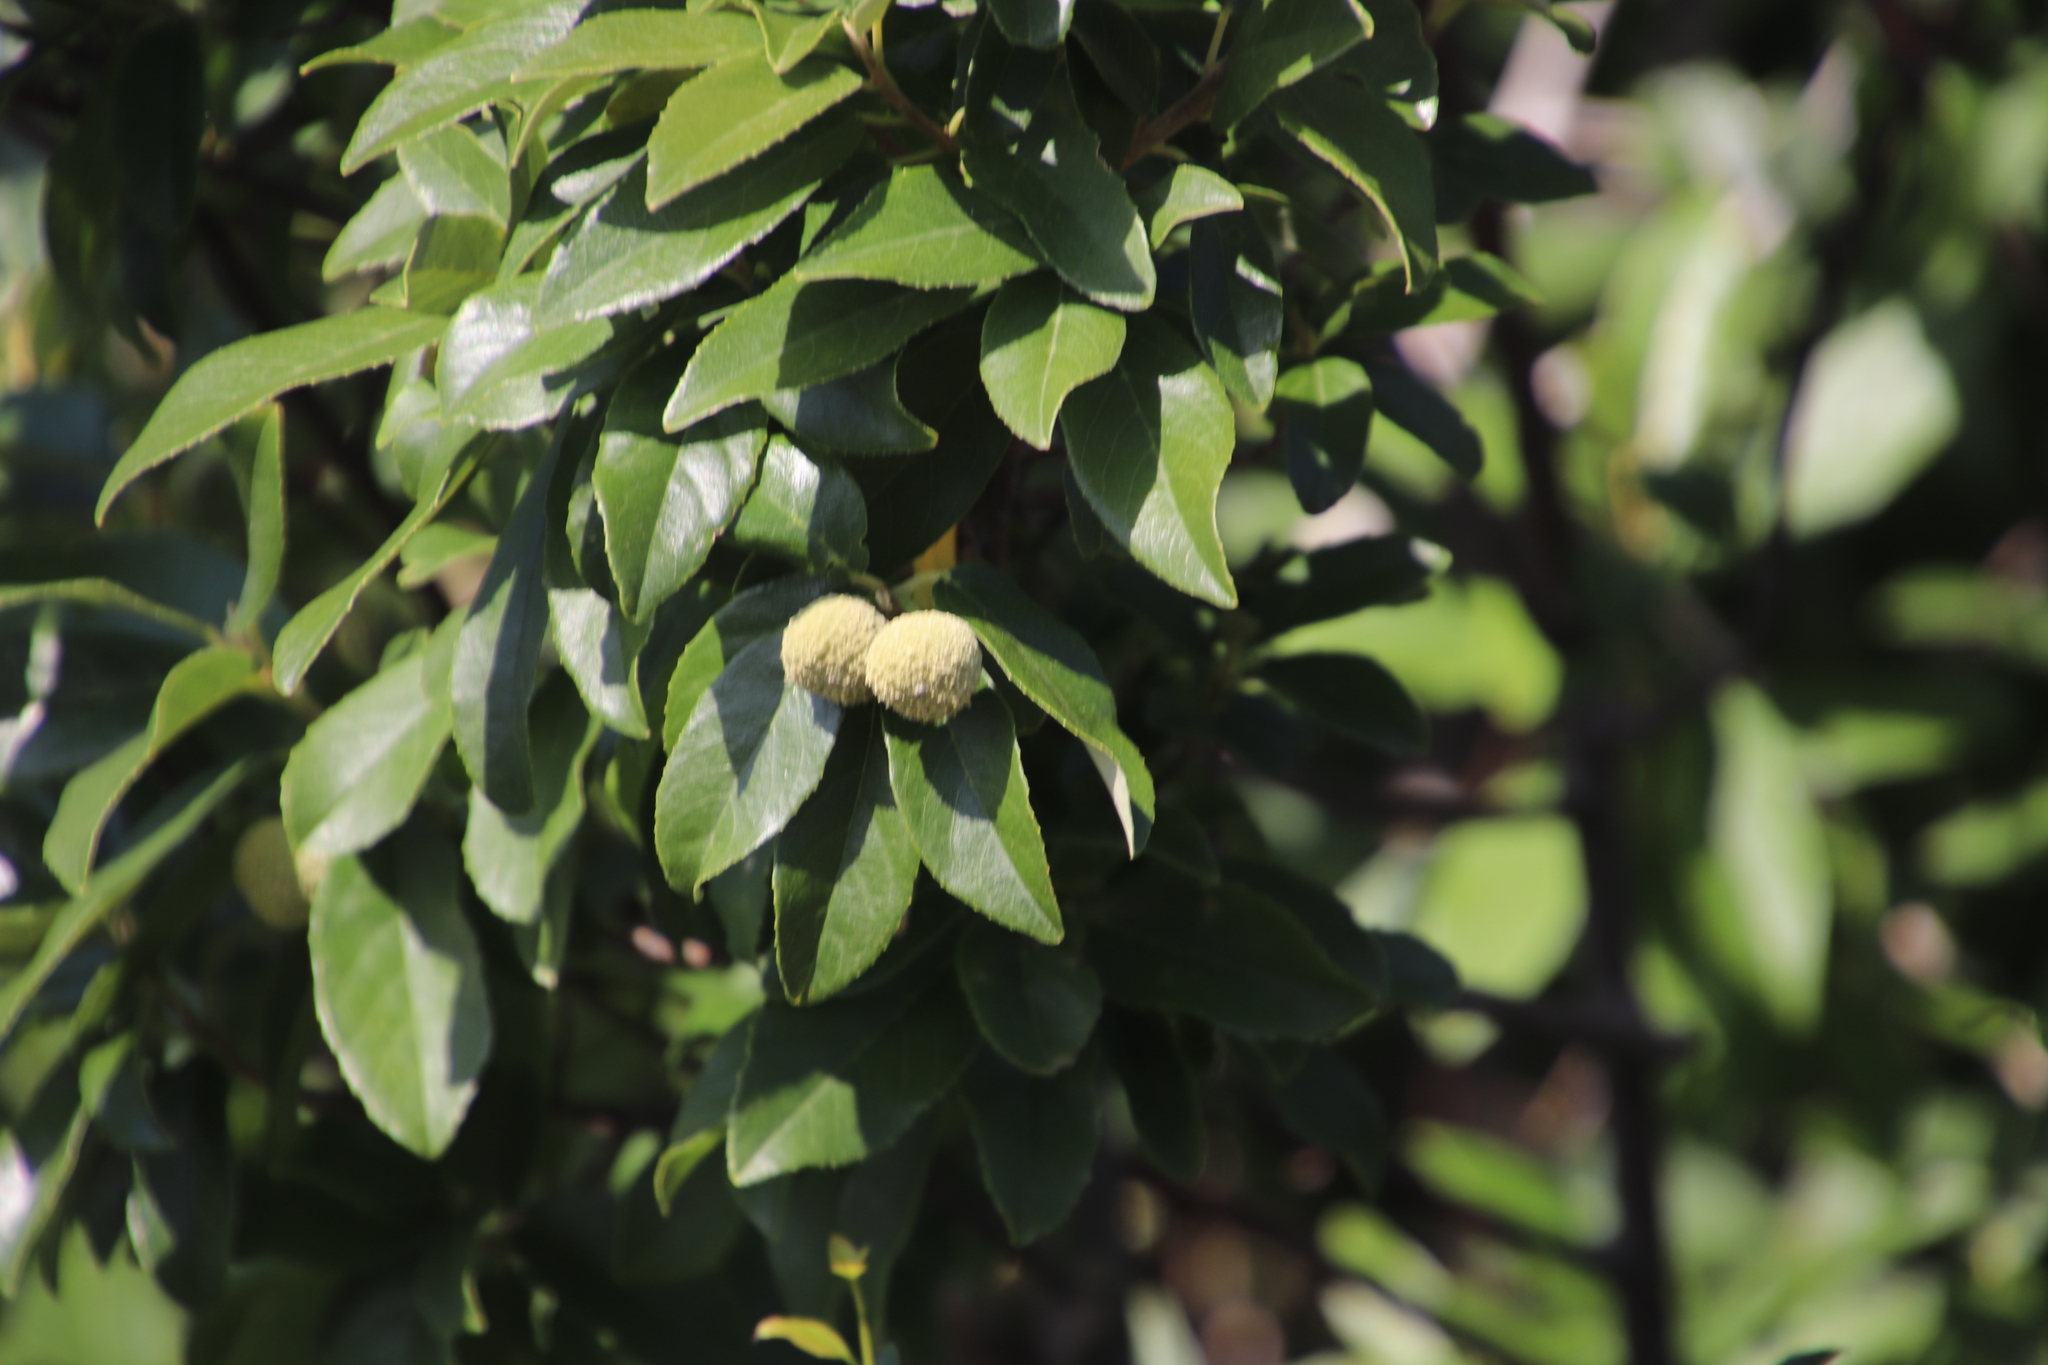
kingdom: Plantae
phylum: Tracheophyta
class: Magnoliopsida
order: Malpighiales
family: Achariaceae
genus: Kiggelaria
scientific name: Kiggelaria africana
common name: Wild peach
